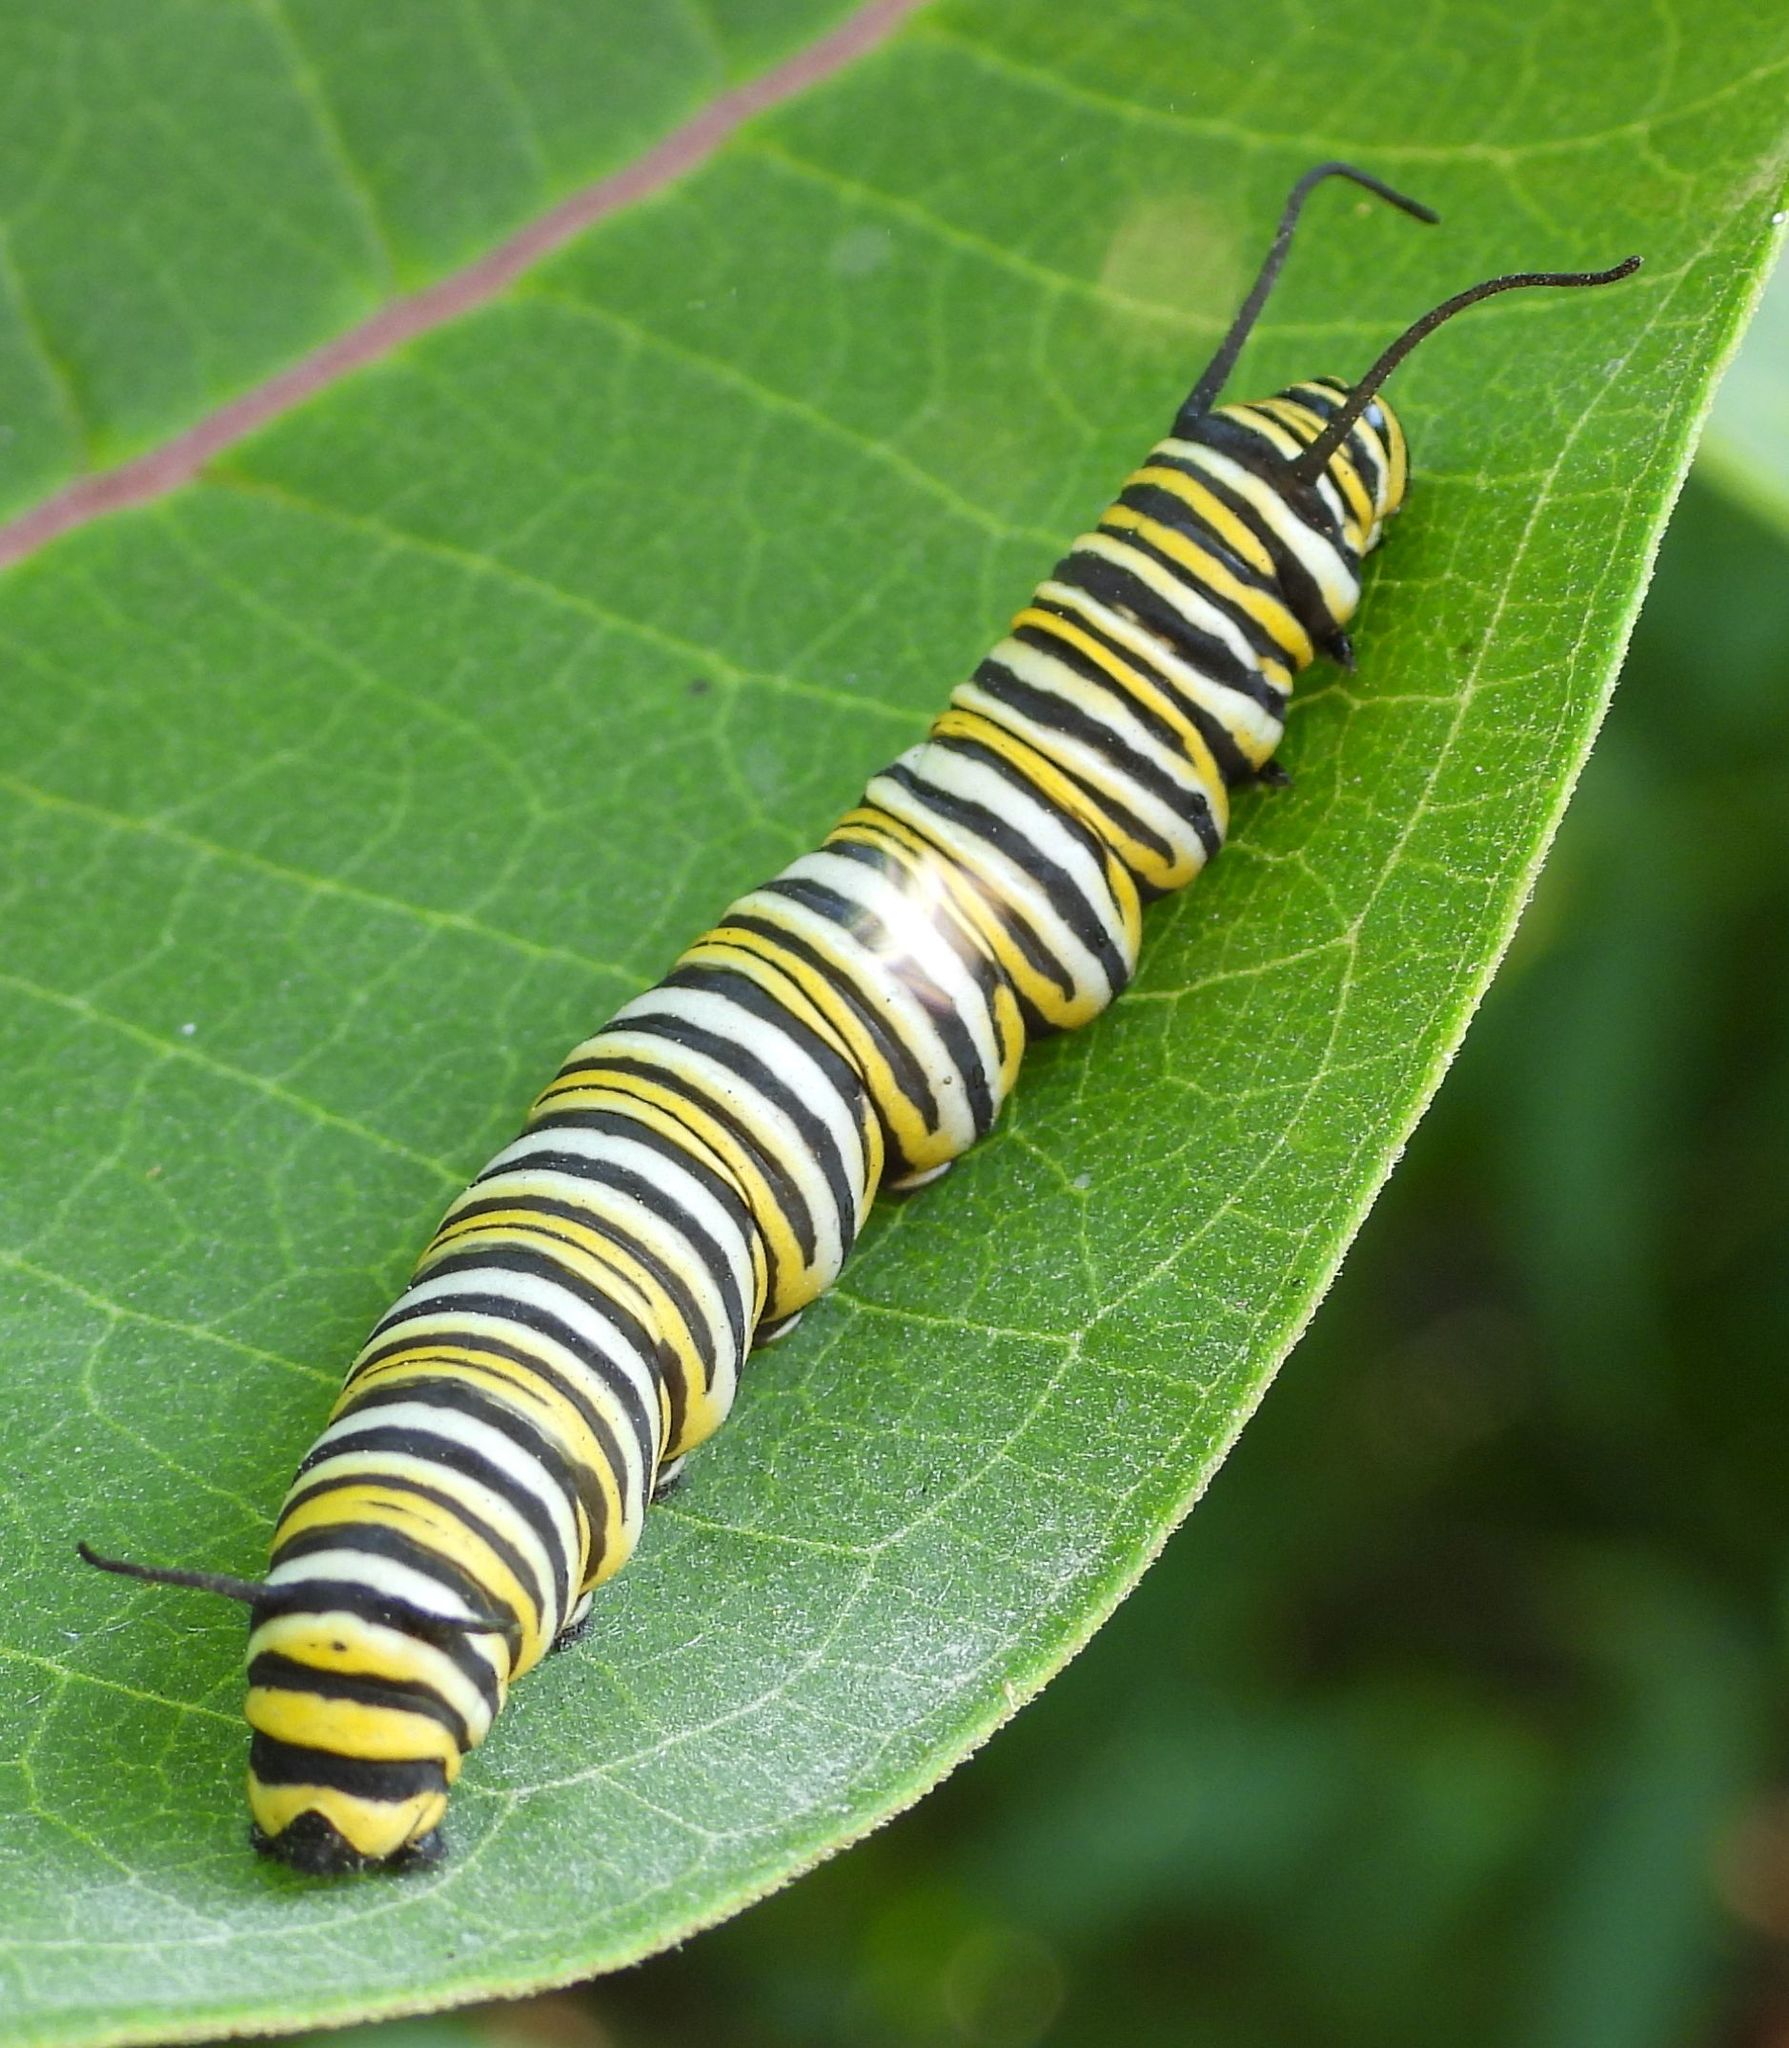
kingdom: Animalia
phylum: Arthropoda
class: Insecta
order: Lepidoptera
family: Nymphalidae
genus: Danaus
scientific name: Danaus plexippus
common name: Monarch
